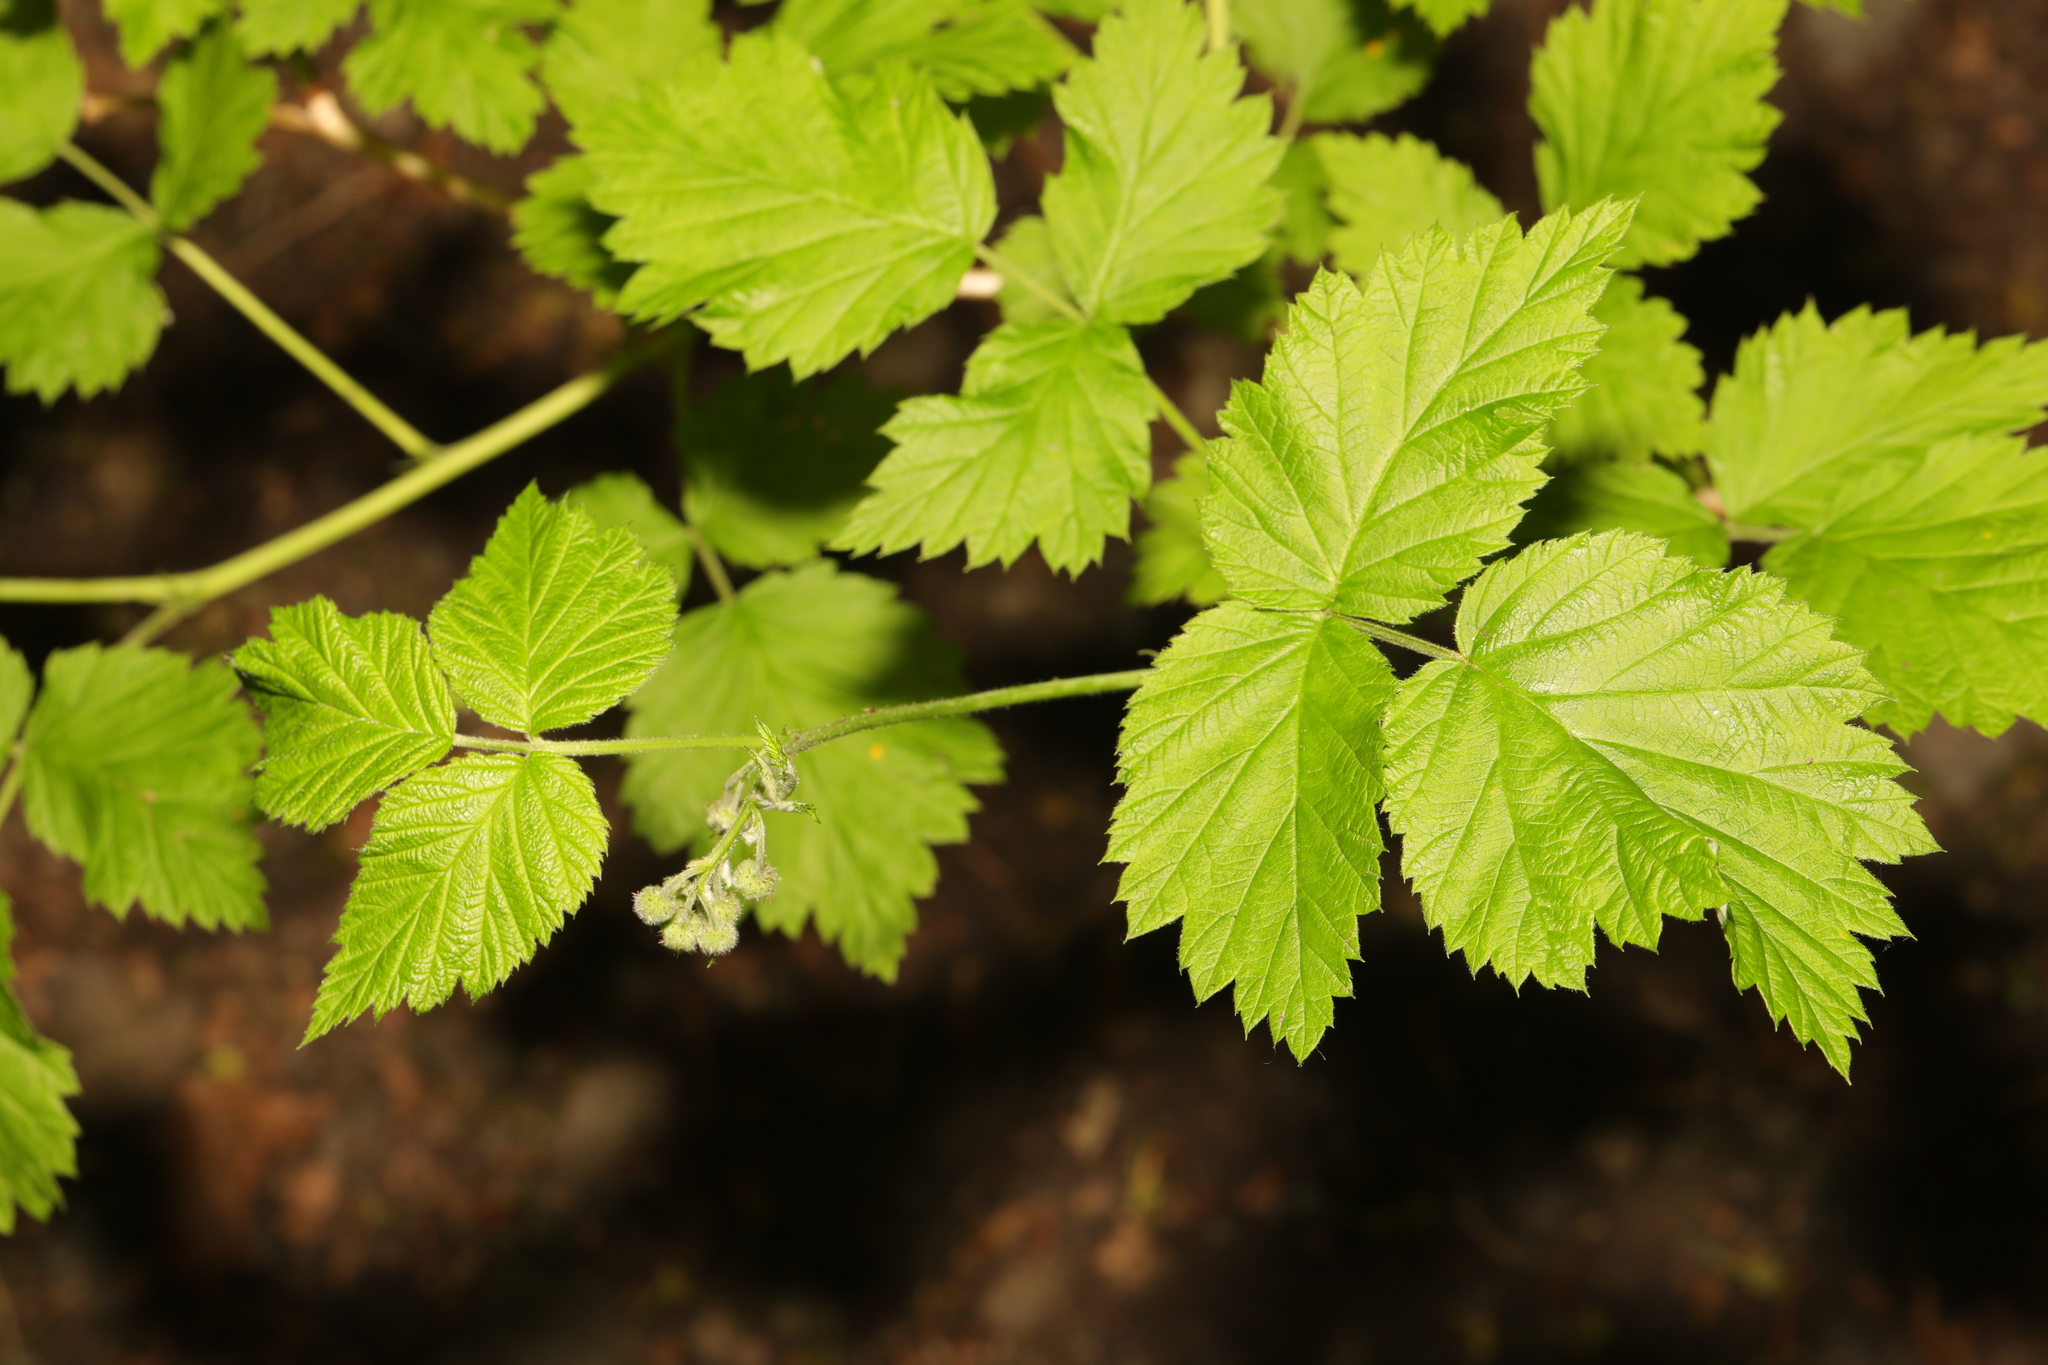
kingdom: Plantae
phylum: Tracheophyta
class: Magnoliopsida
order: Rosales
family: Rosaceae
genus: Rubus
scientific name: Rubus idaeus
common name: Raspberry
